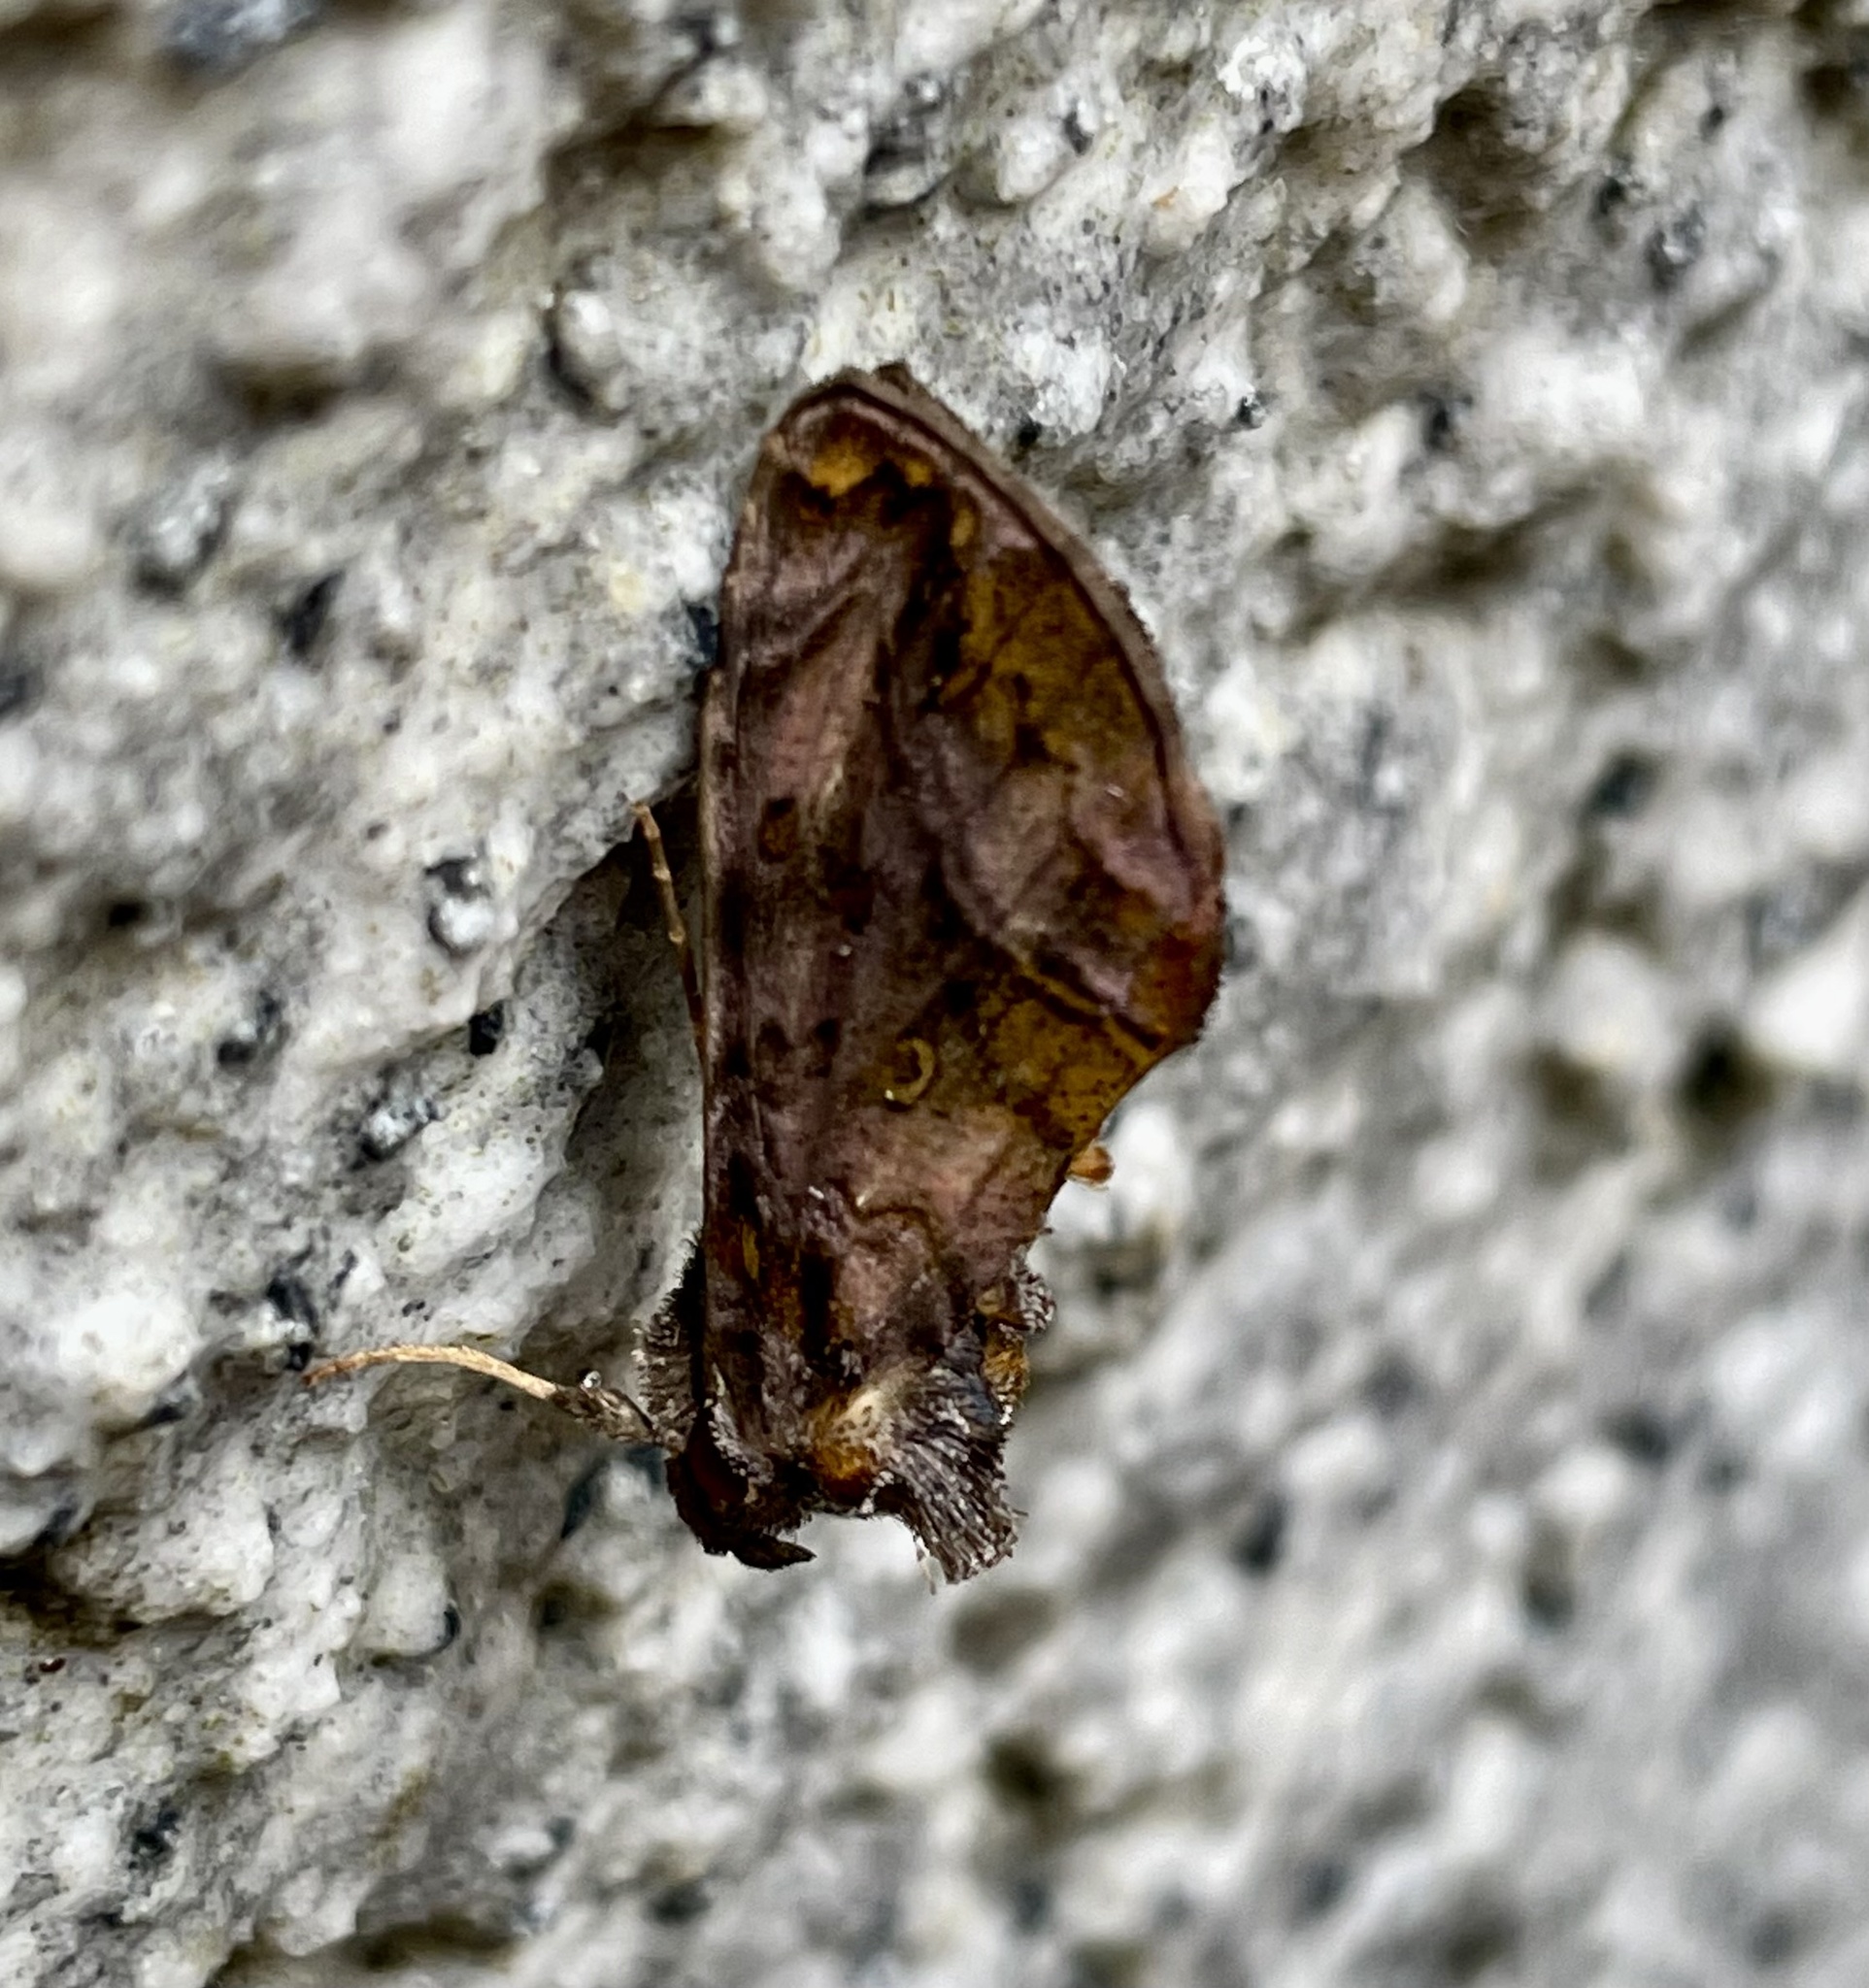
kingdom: Animalia
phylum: Arthropoda
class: Insecta
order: Lepidoptera
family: Noctuidae
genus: Lamprotes
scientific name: Lamprotes mikadina
